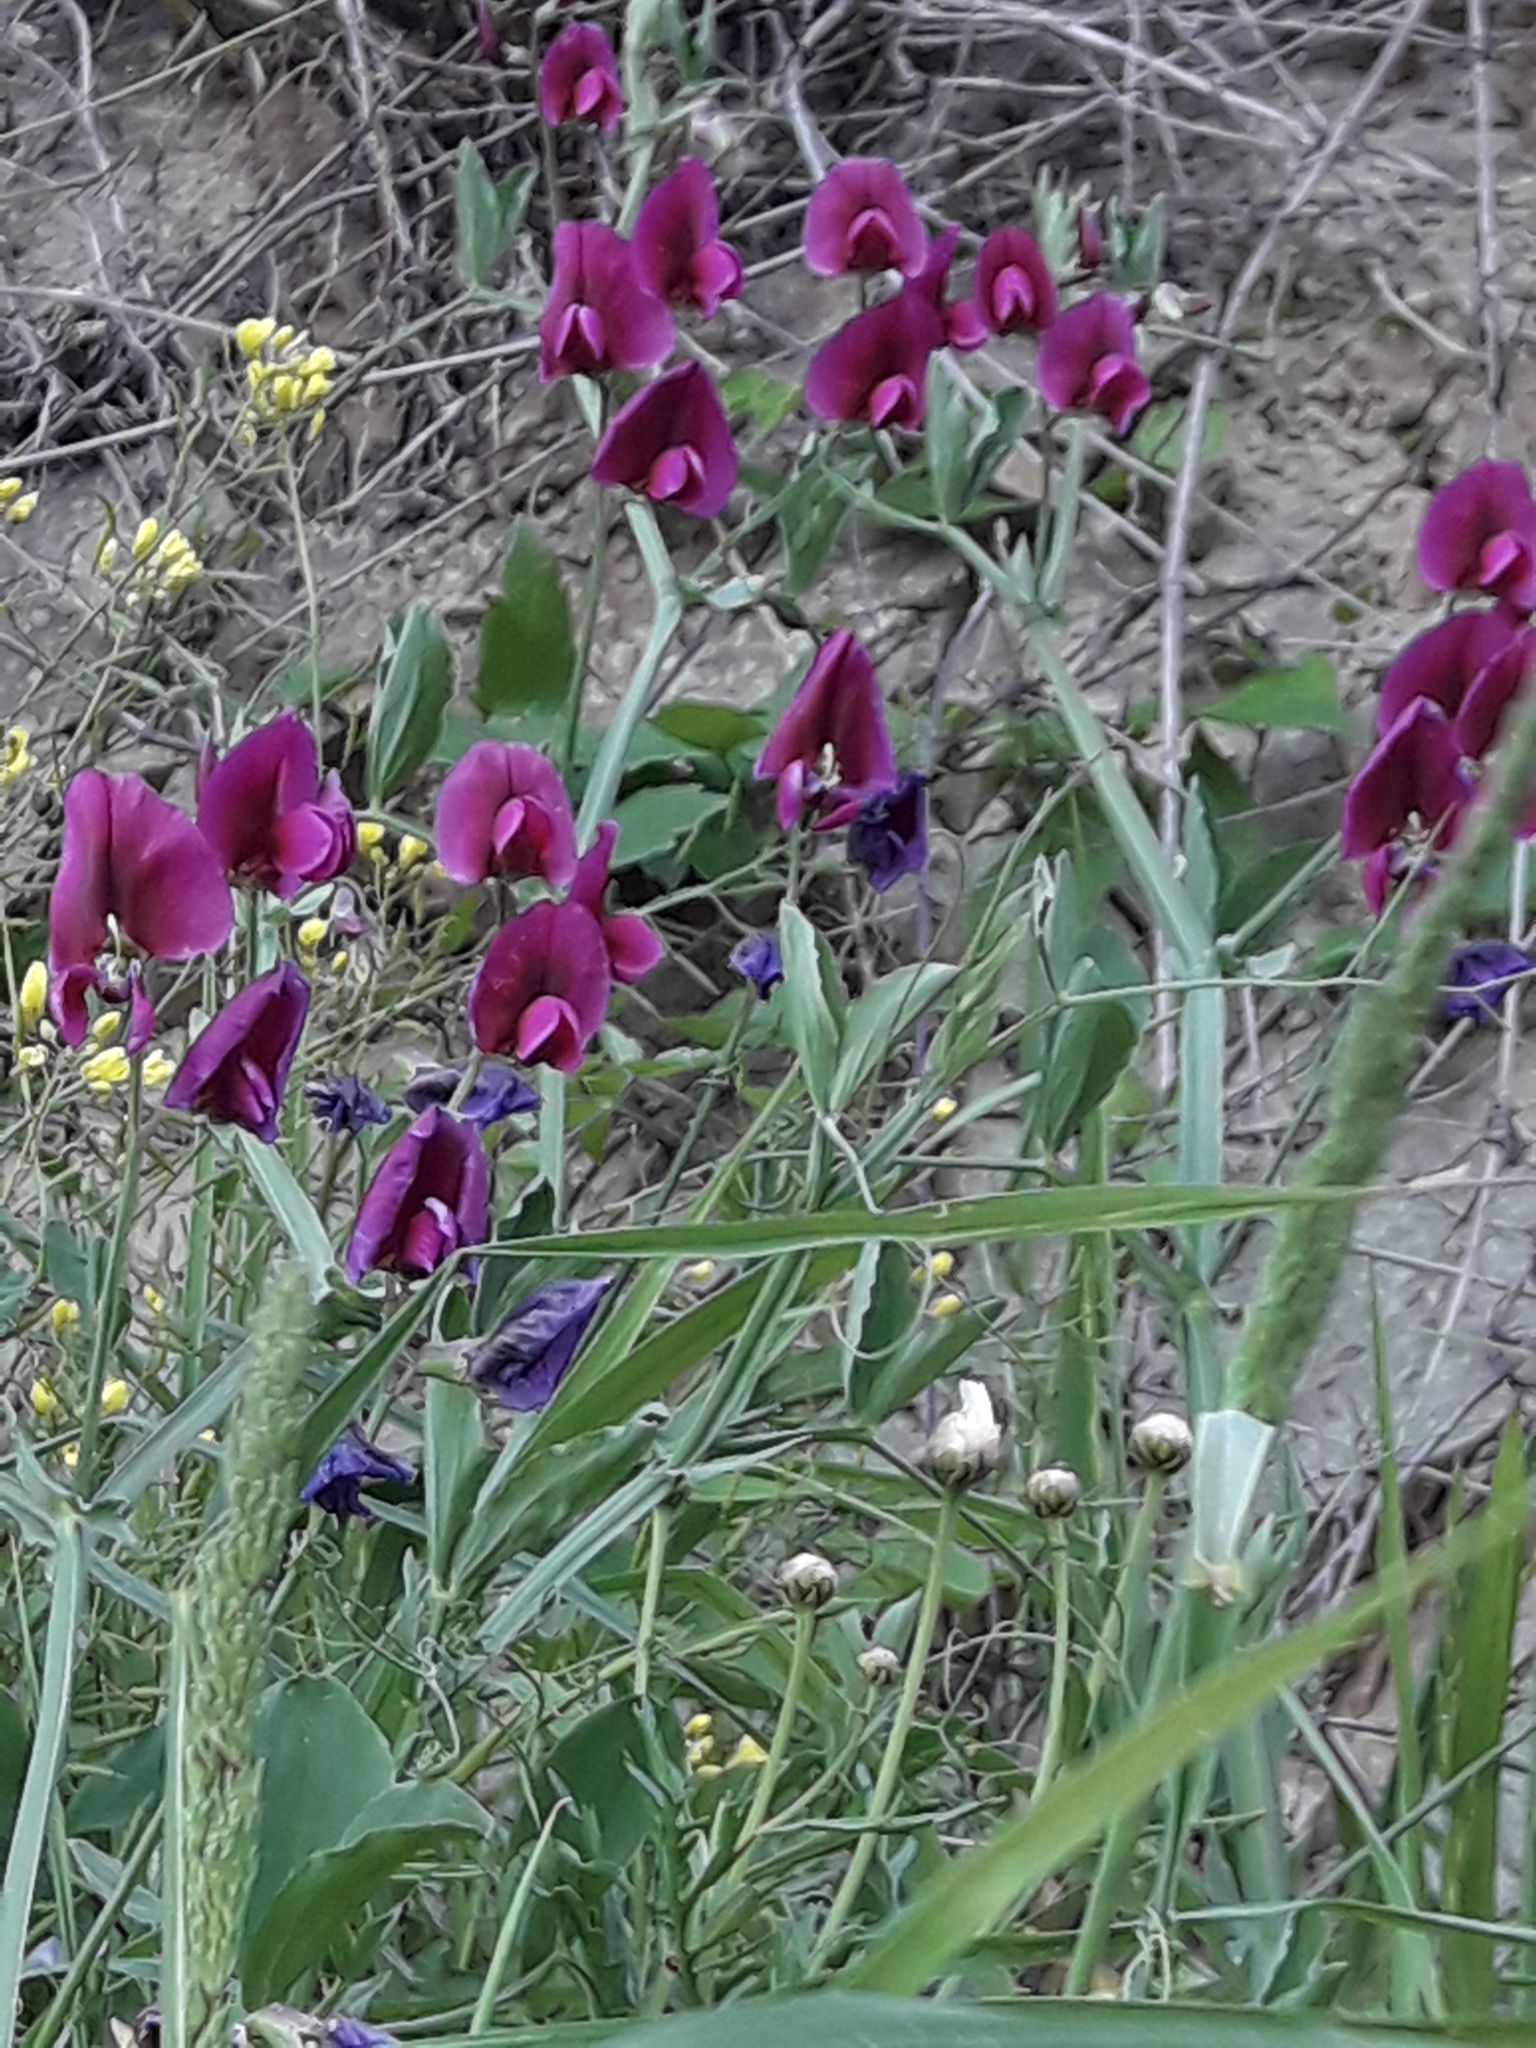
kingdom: Plantae
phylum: Tracheophyta
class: Magnoliopsida
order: Fabales
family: Fabaceae
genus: Lathyrus
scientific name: Lathyrus tingitanus
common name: Tangier pea
